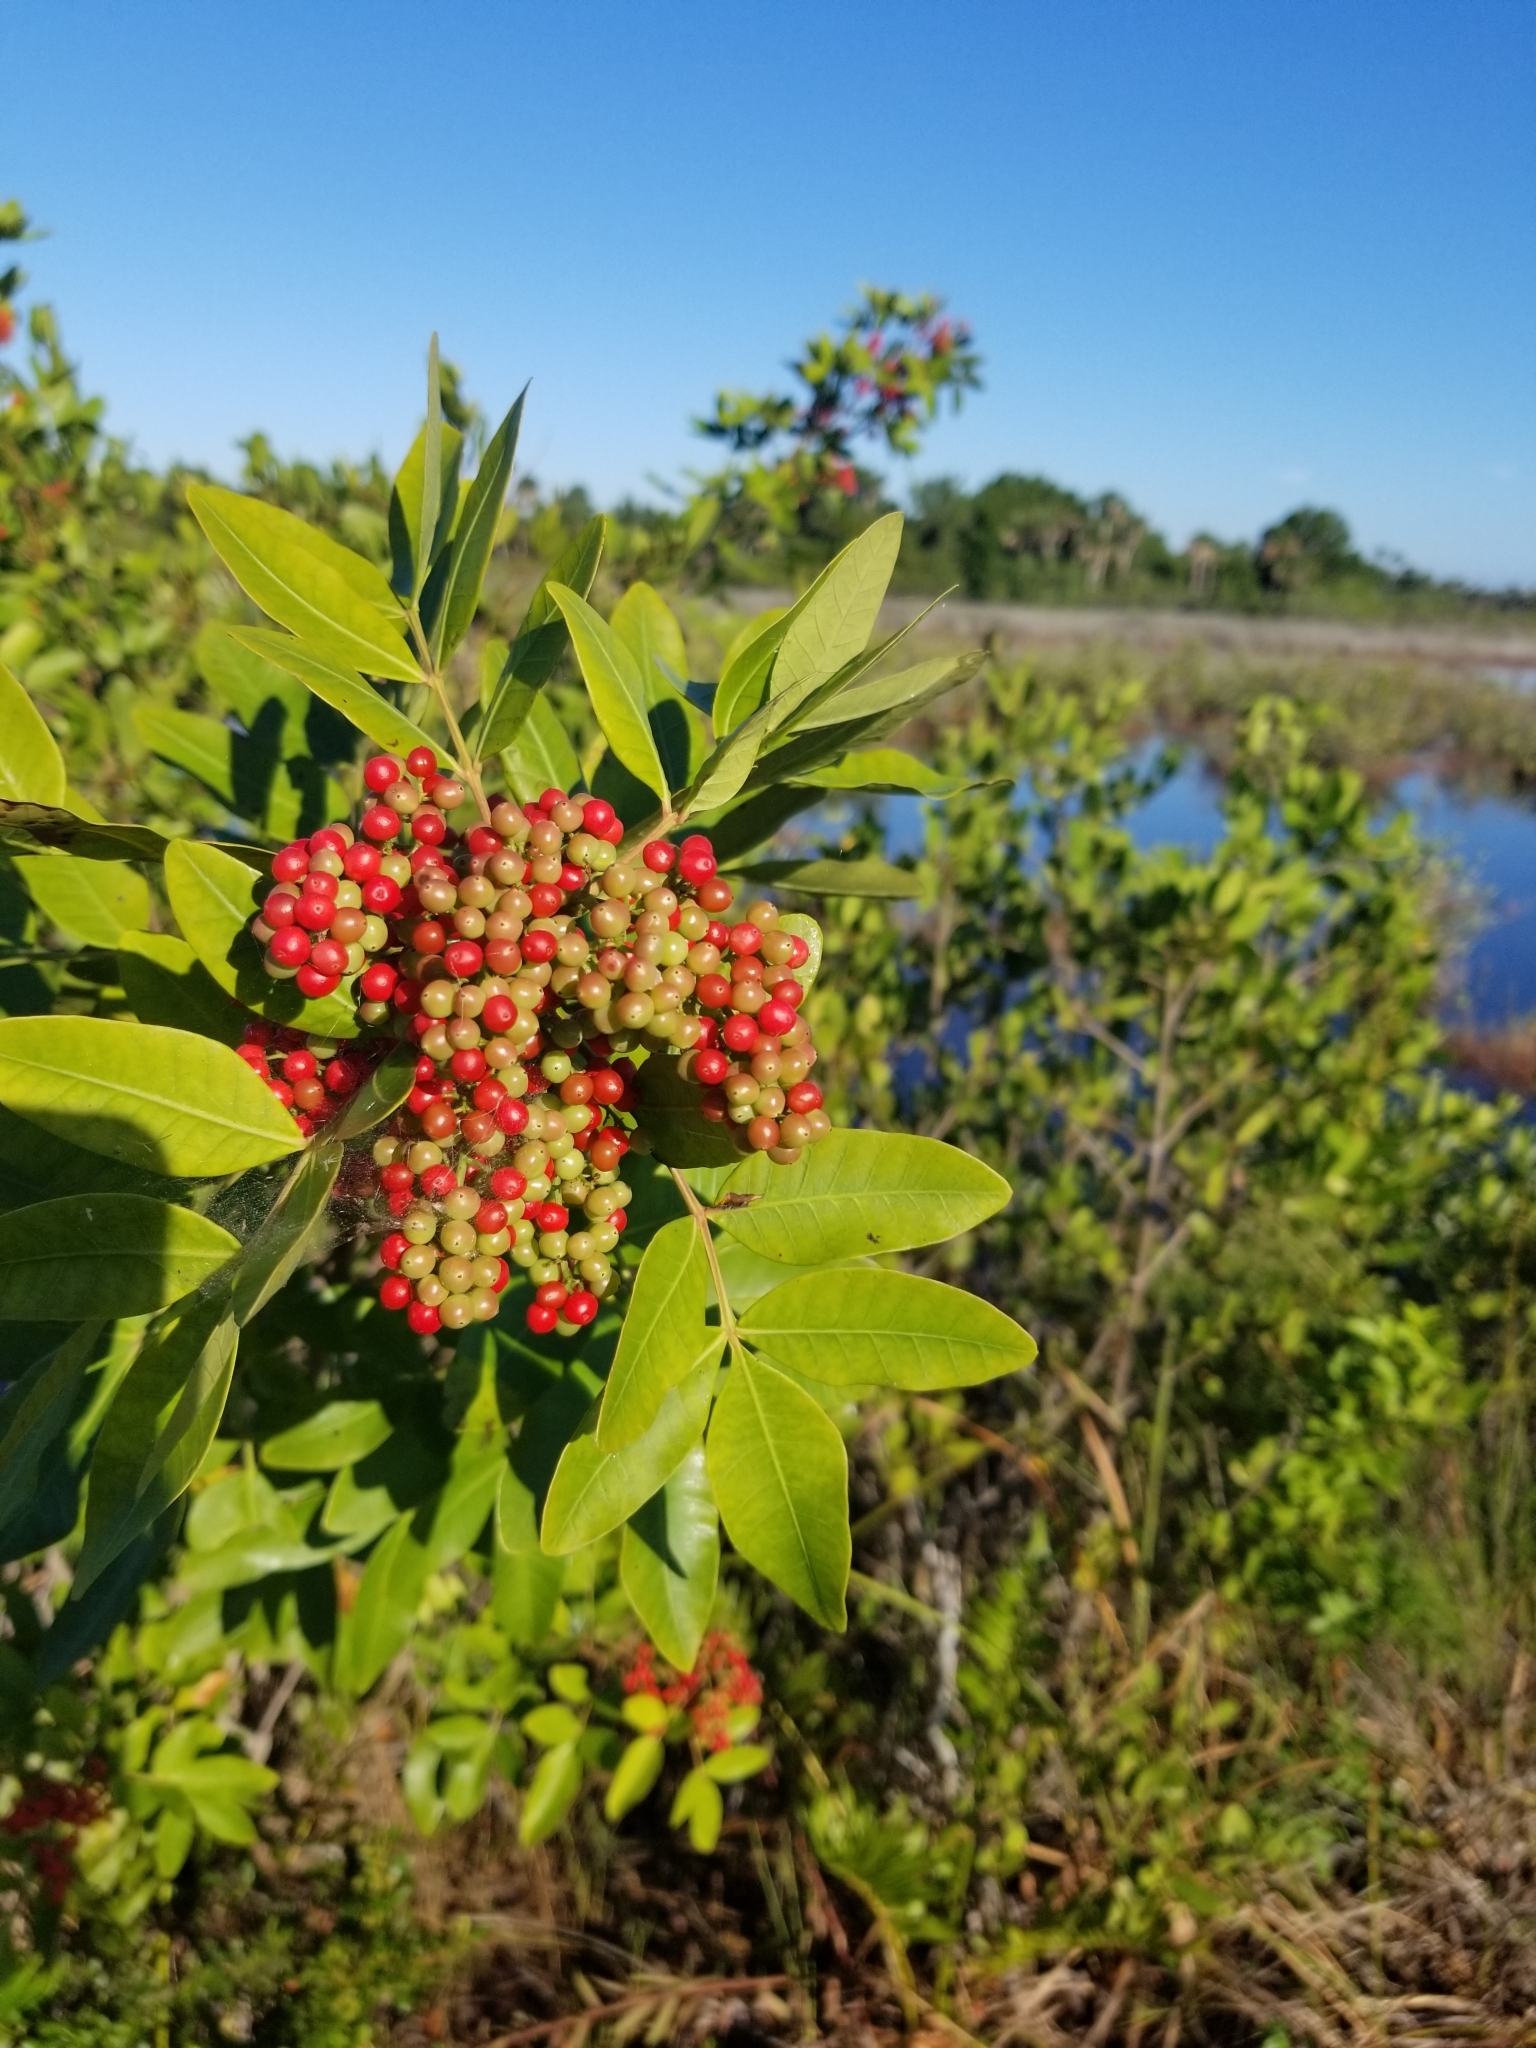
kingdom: Plantae
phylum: Tracheophyta
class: Magnoliopsida
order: Sapindales
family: Anacardiaceae
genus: Schinus
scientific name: Schinus terebinthifolia
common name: Brazilian peppertree
